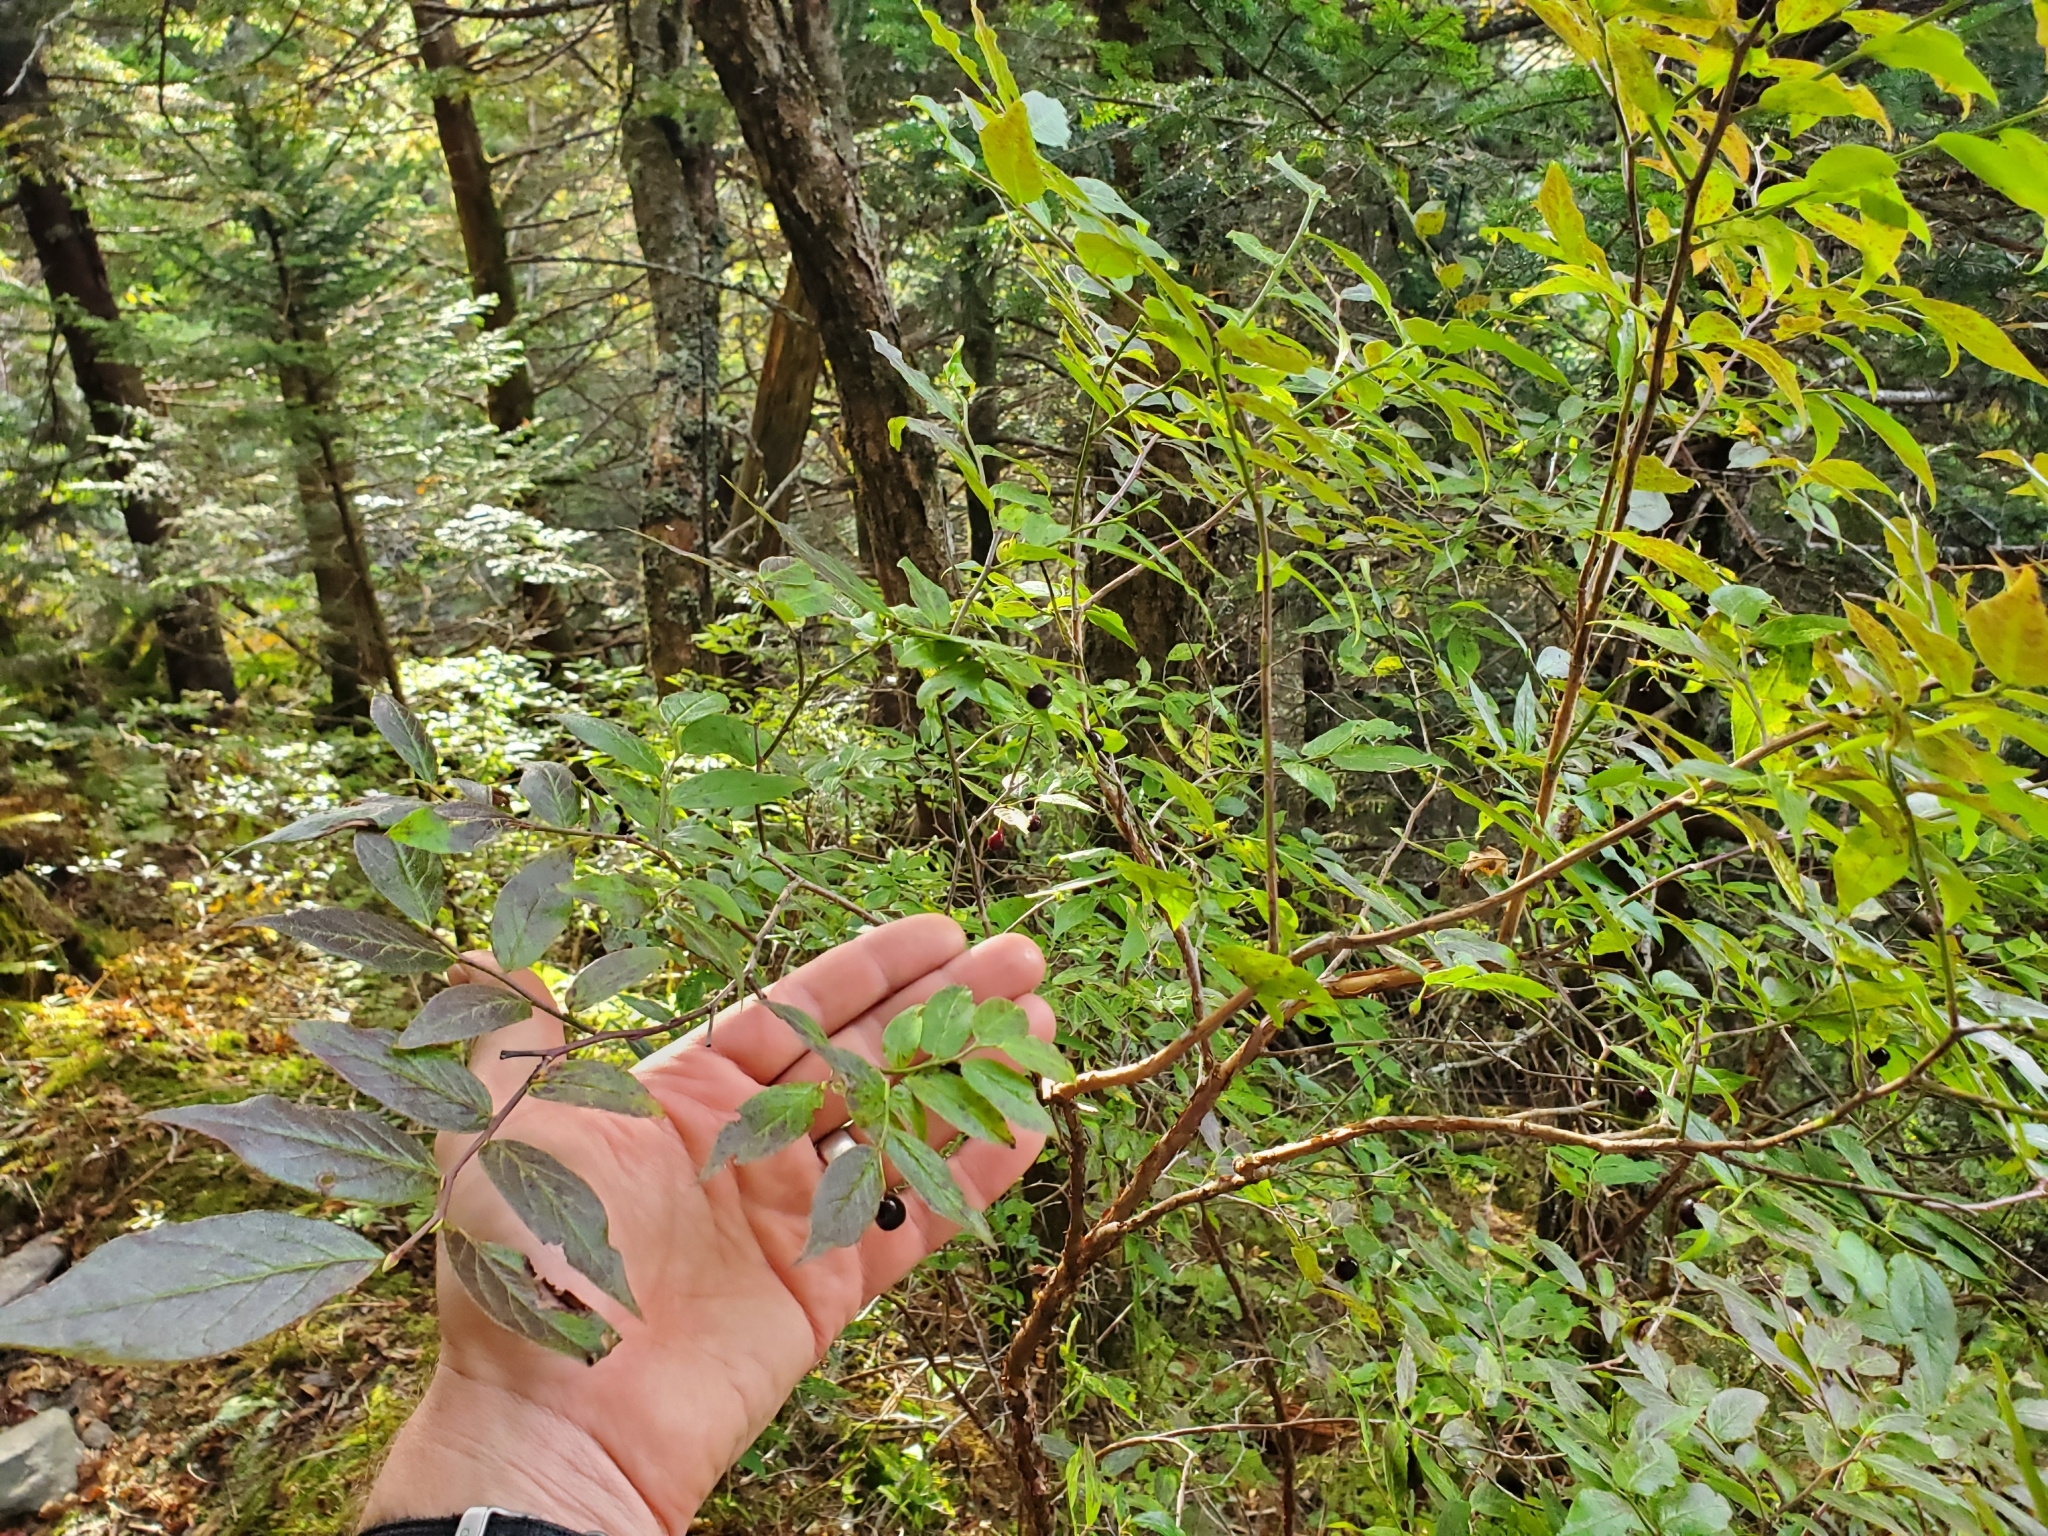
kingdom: Plantae
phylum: Tracheophyta
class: Magnoliopsida
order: Ericales
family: Ericaceae
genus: Vaccinium
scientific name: Vaccinium erythrocarpum
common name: Bearberry
